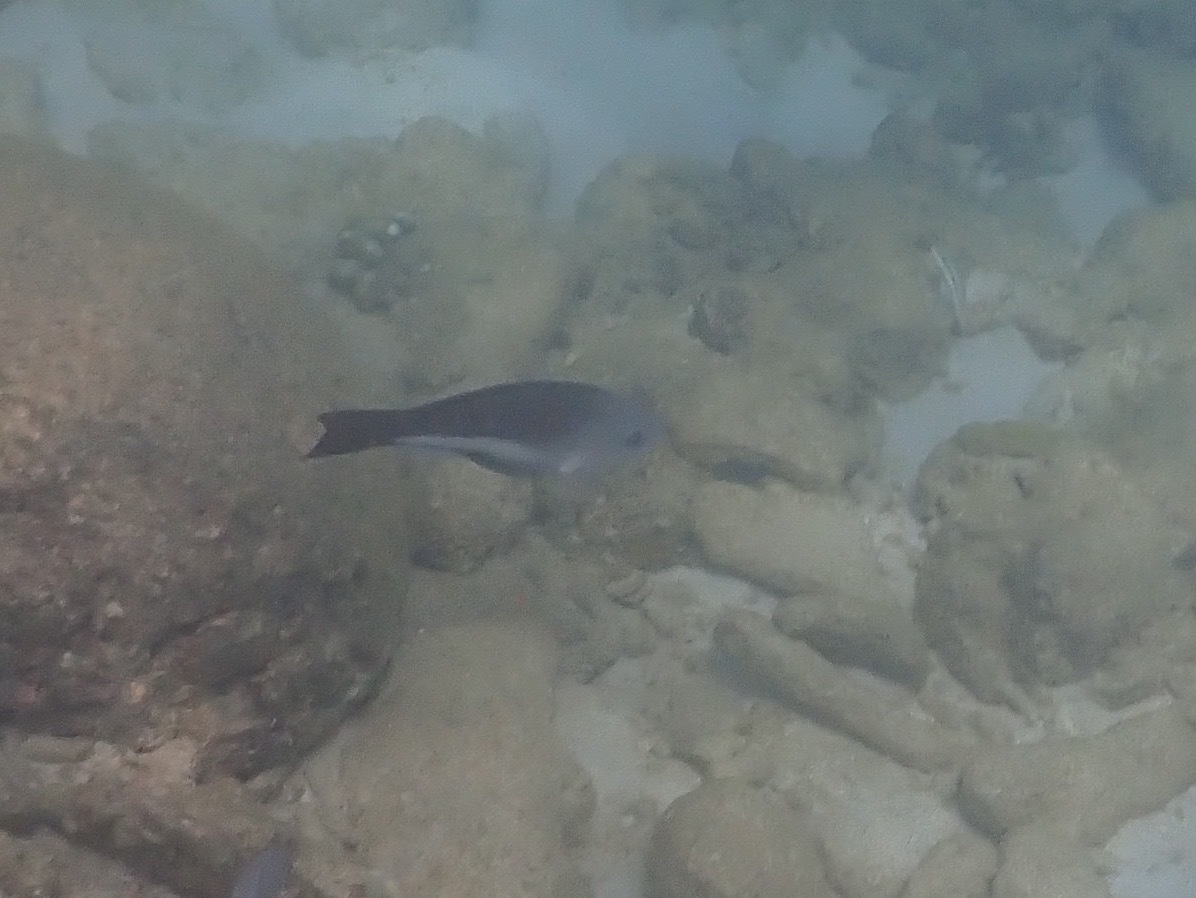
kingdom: Animalia
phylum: Chordata
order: Perciformes
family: Scaridae
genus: Scarus
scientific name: Scarus vetula
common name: Queen parrotfish
